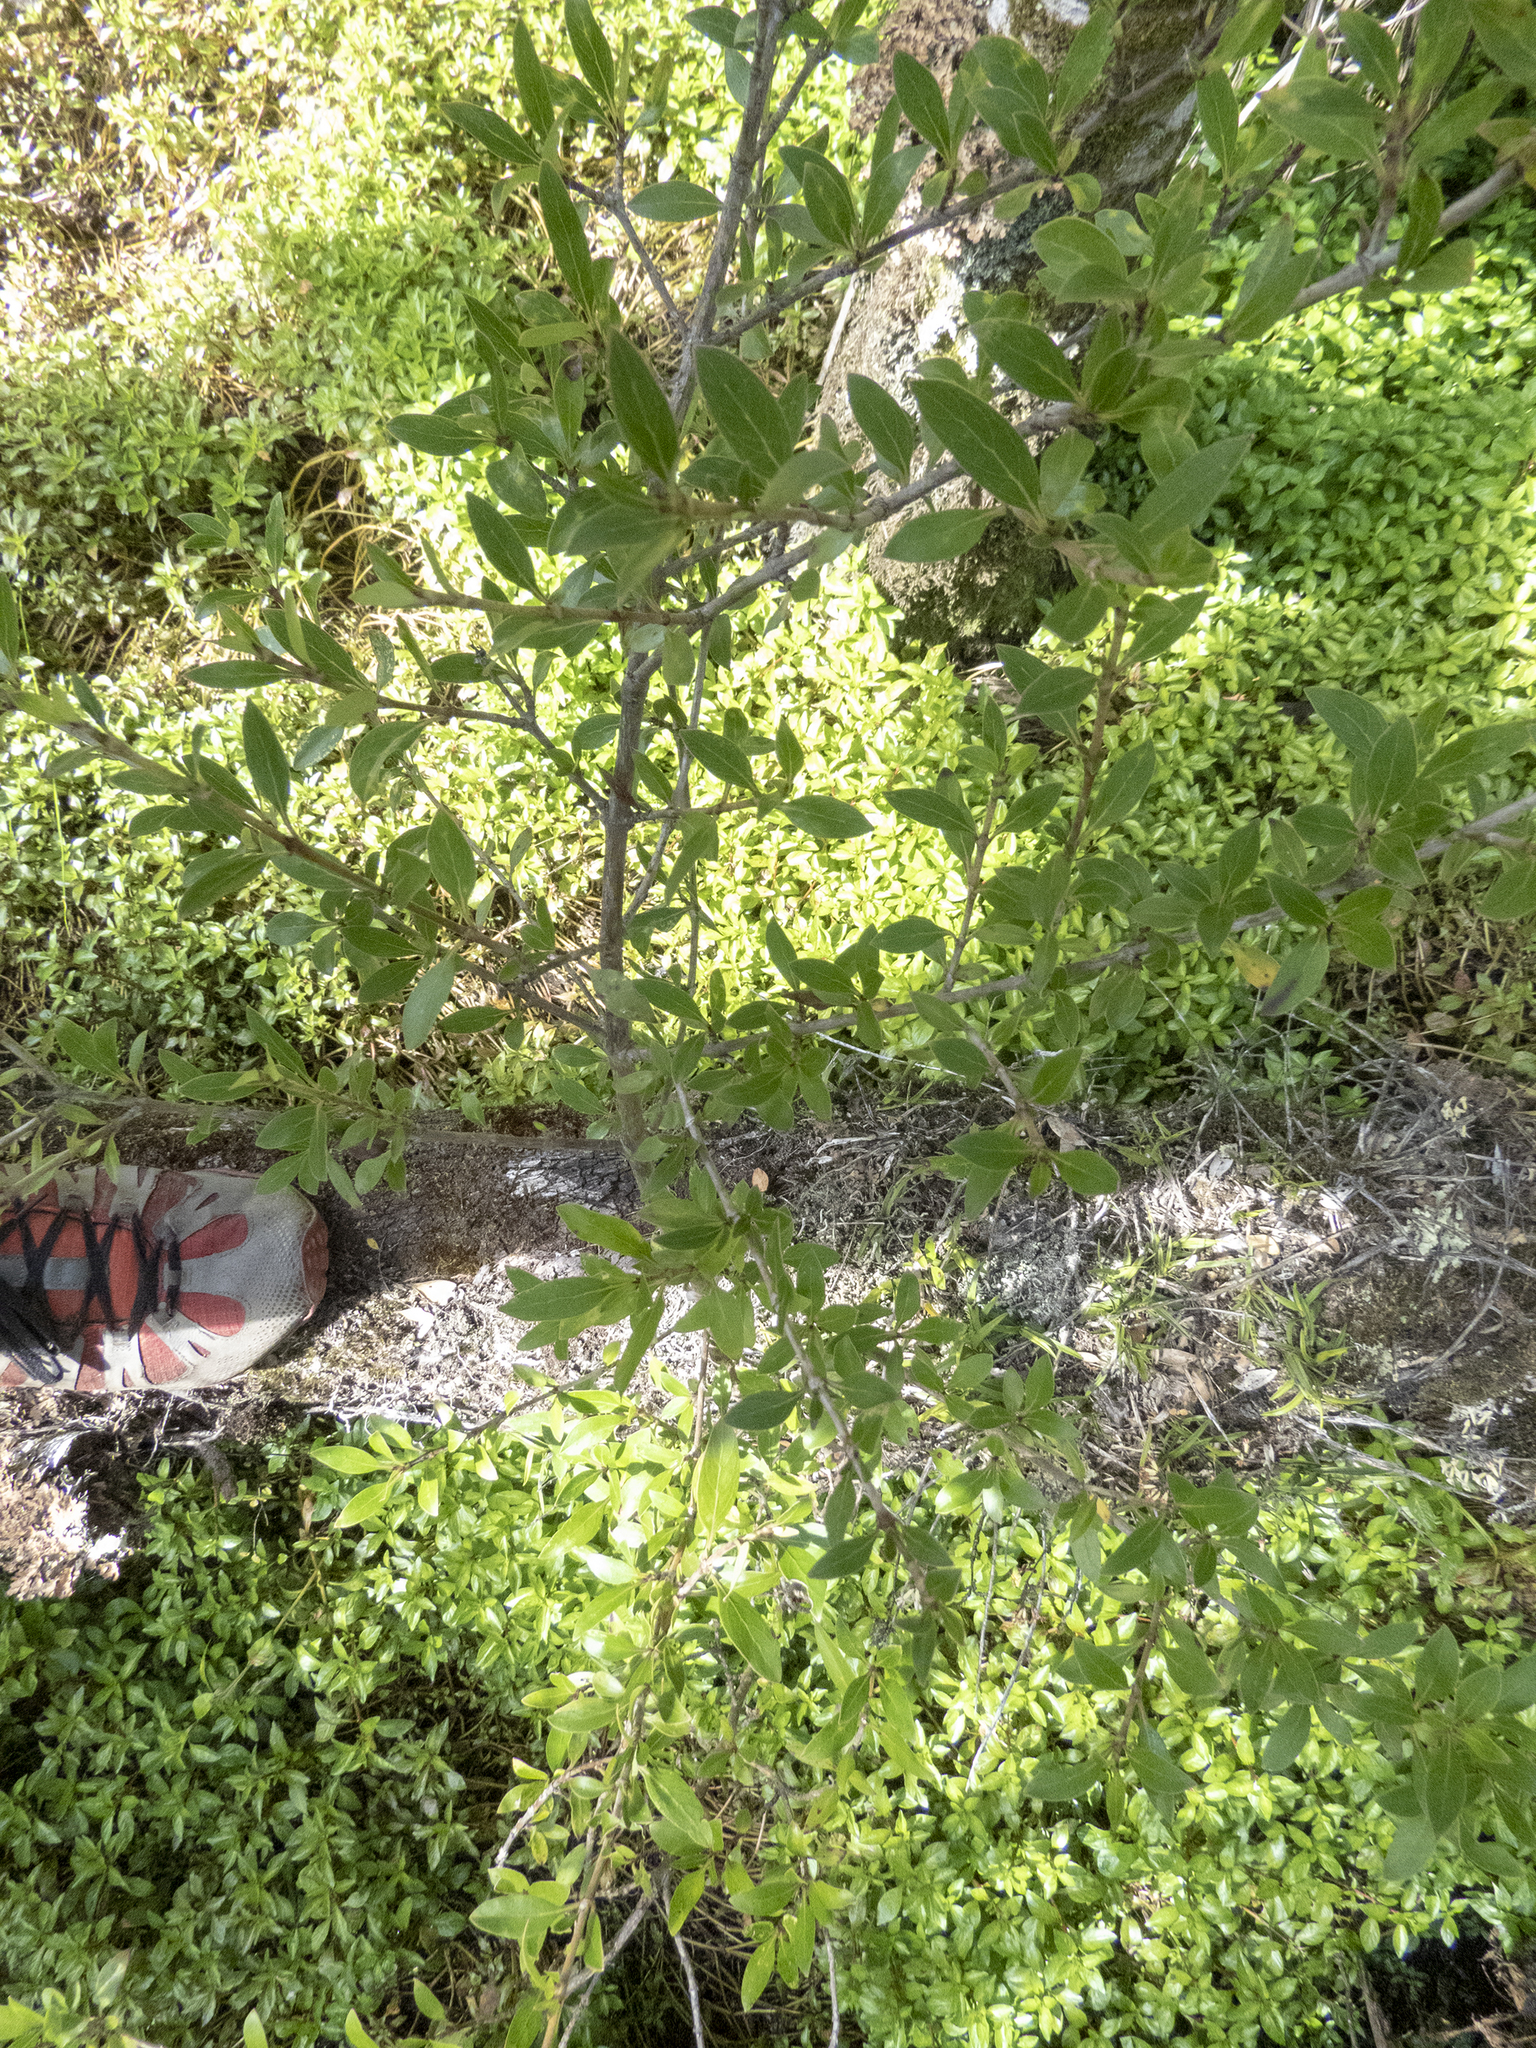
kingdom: Plantae
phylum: Tracheophyta
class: Magnoliopsida
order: Gentianales
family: Rubiaceae
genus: Coprosma
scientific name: Coprosma cunninghamii
